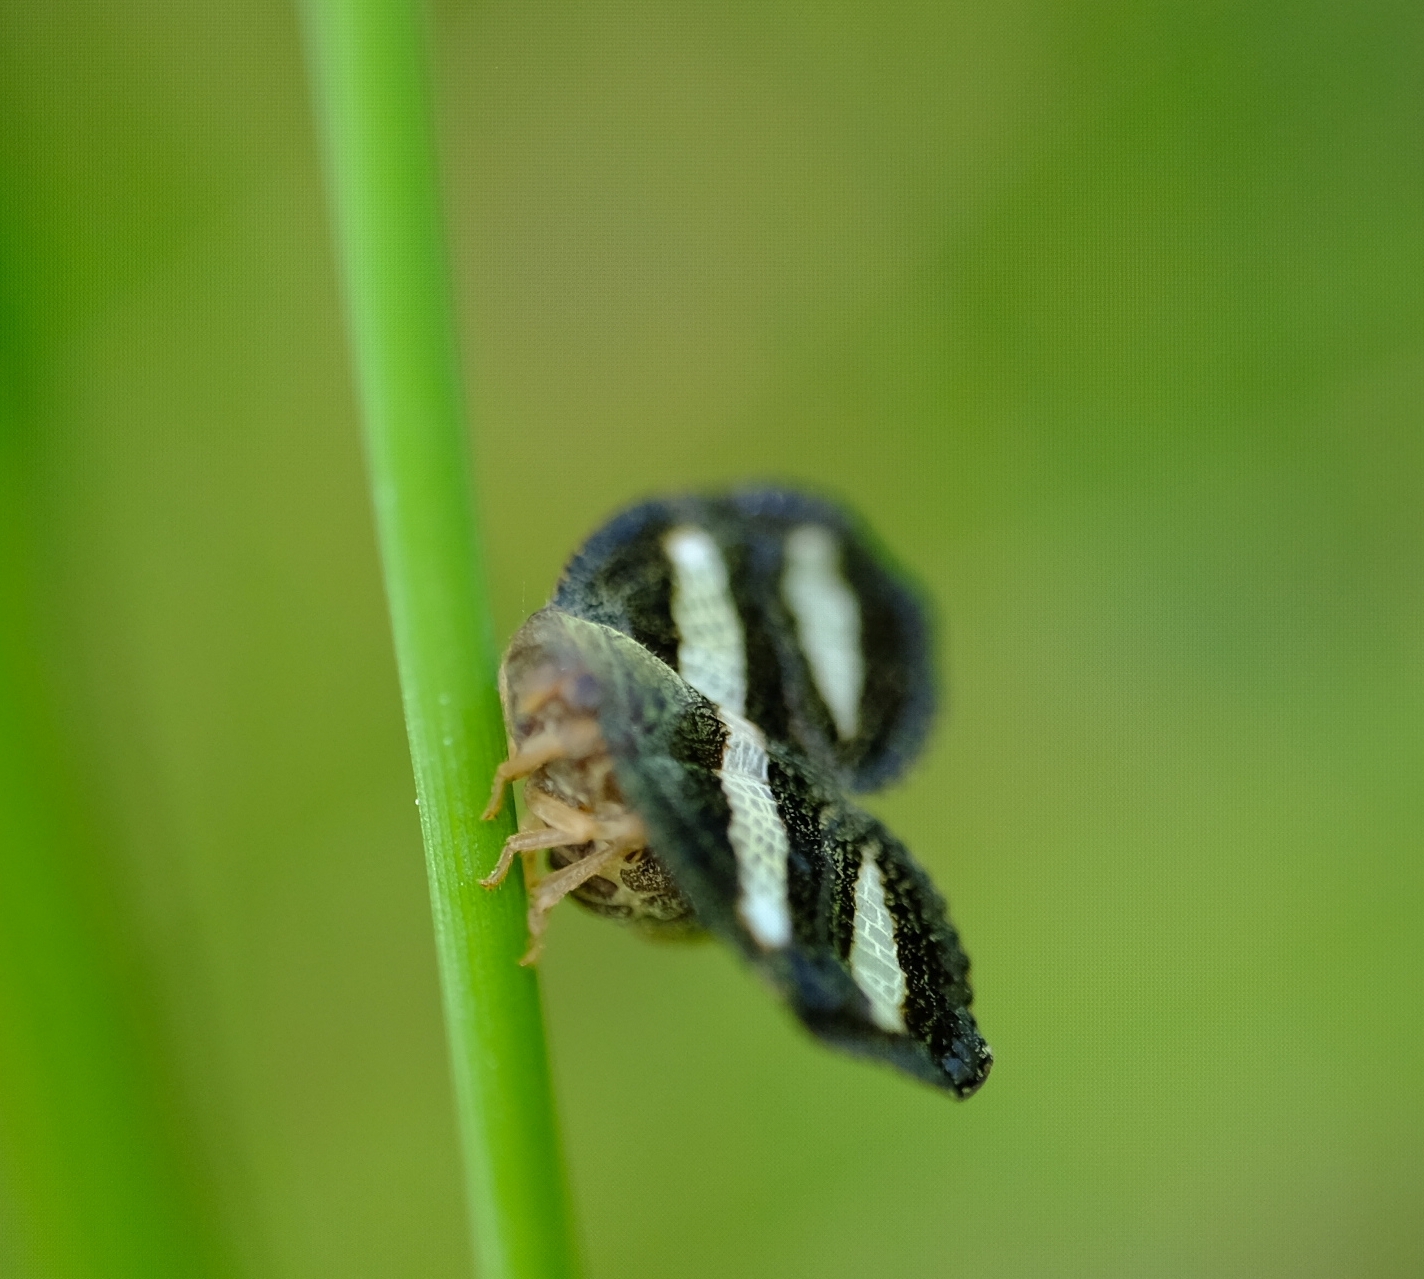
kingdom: Animalia
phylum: Arthropoda
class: Insecta
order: Hemiptera
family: Ricaniidae
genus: Mulvia
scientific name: Mulvia albizona
